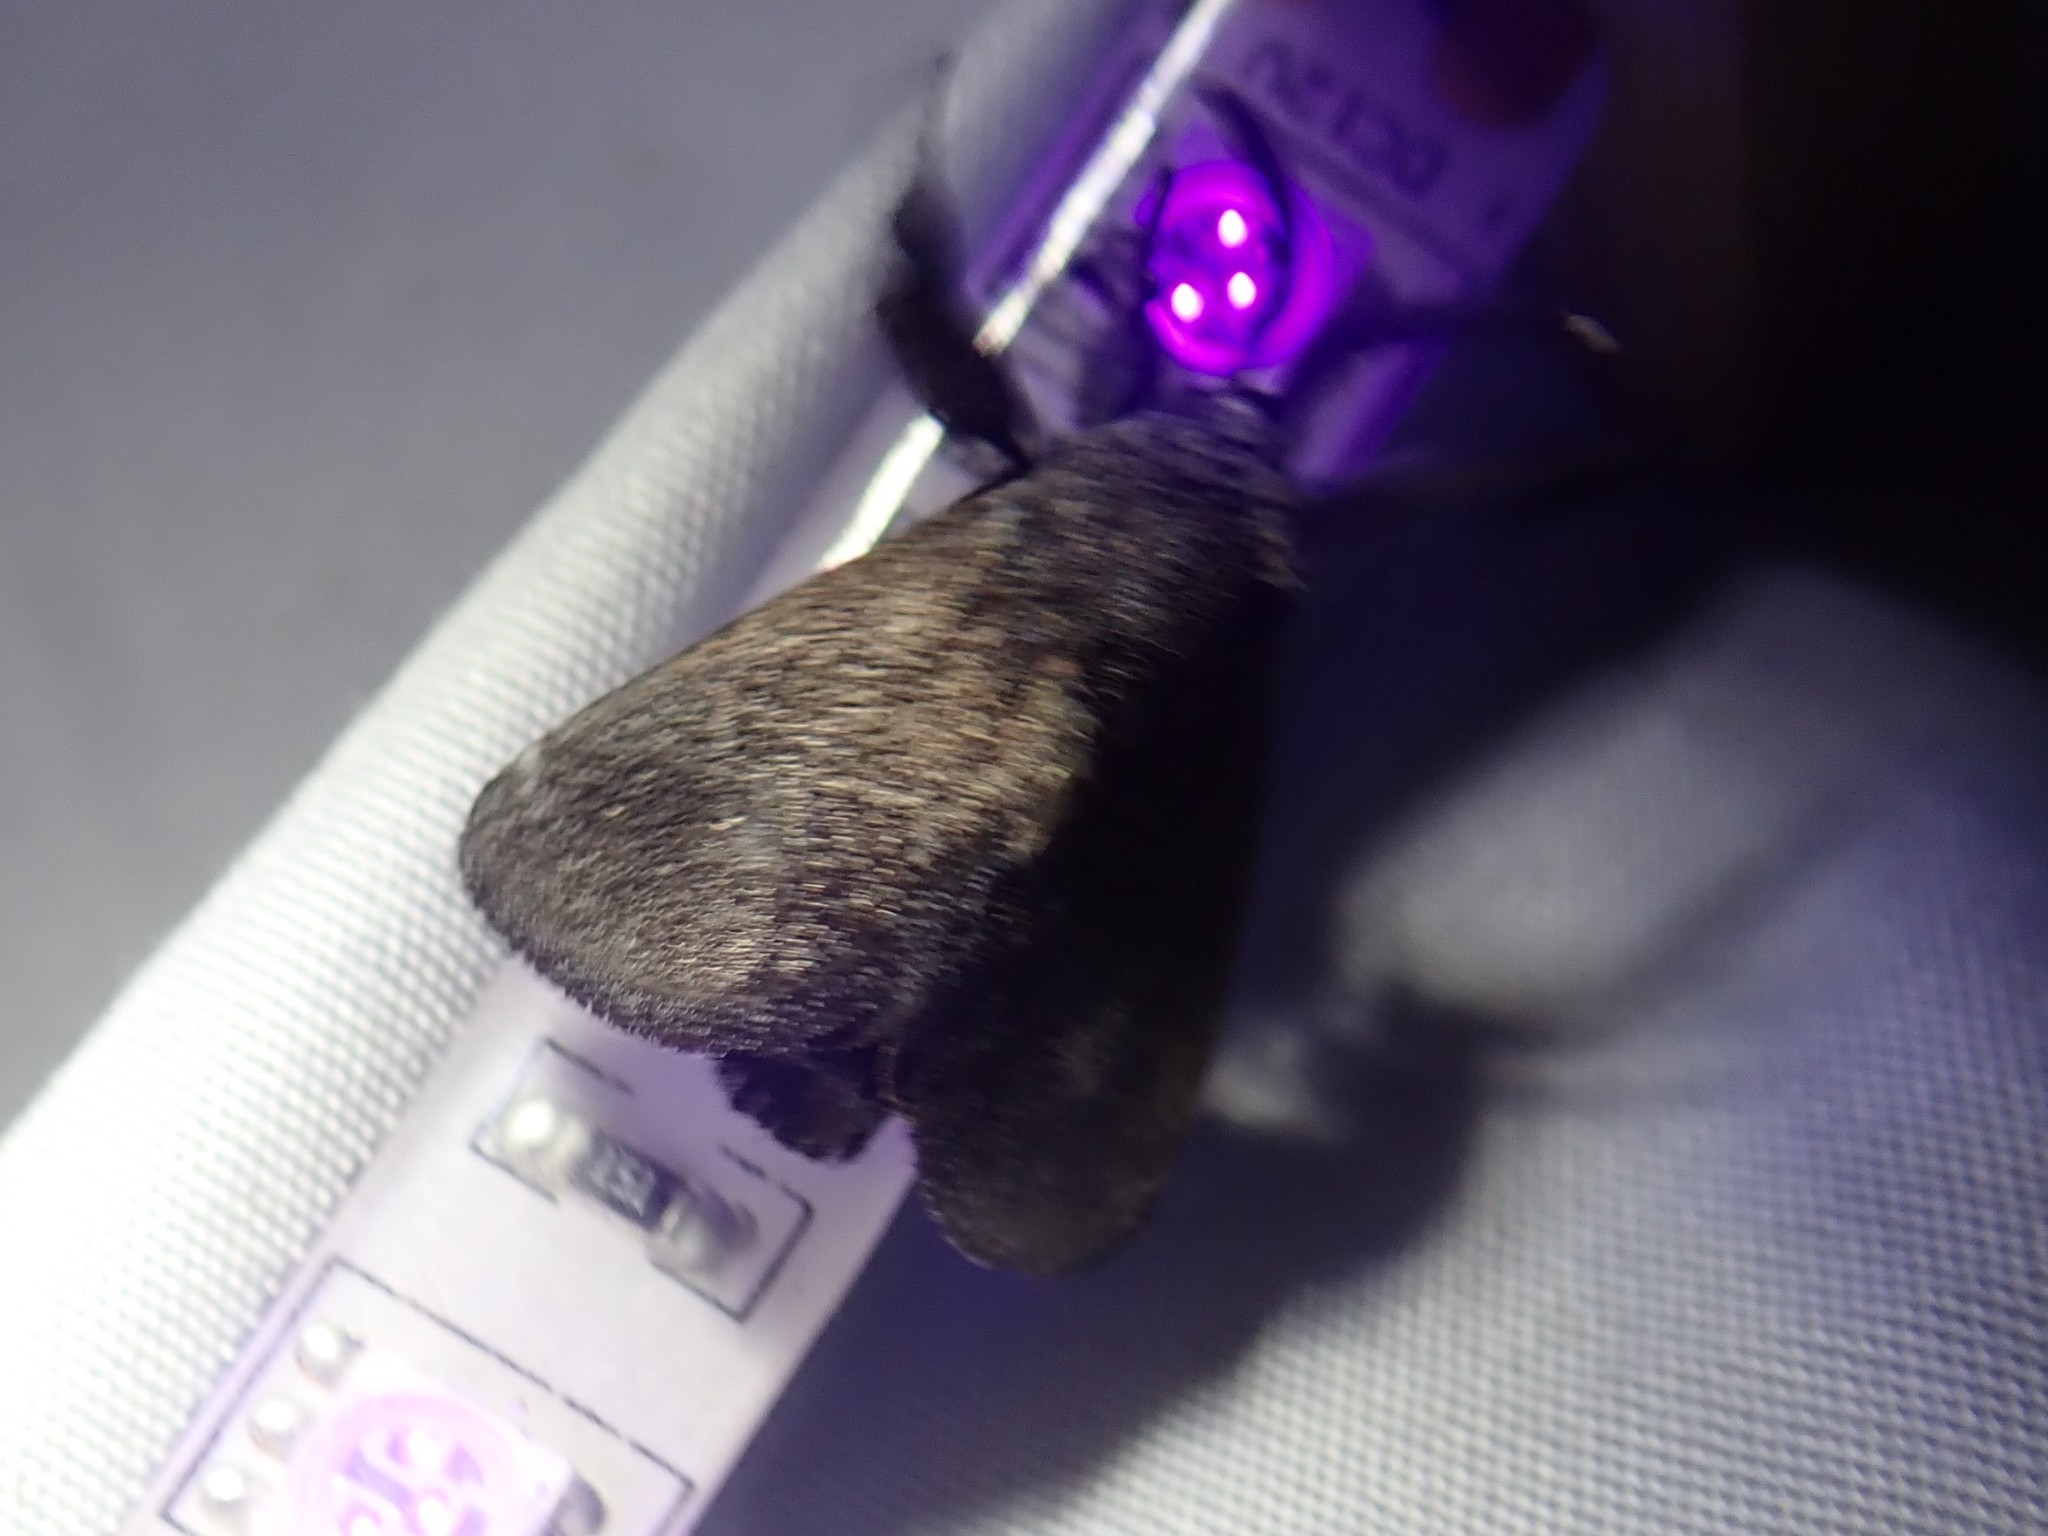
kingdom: Animalia
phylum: Arthropoda
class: Insecta
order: Lepidoptera
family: Limacodidae
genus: Perola
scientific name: Perola repetita
